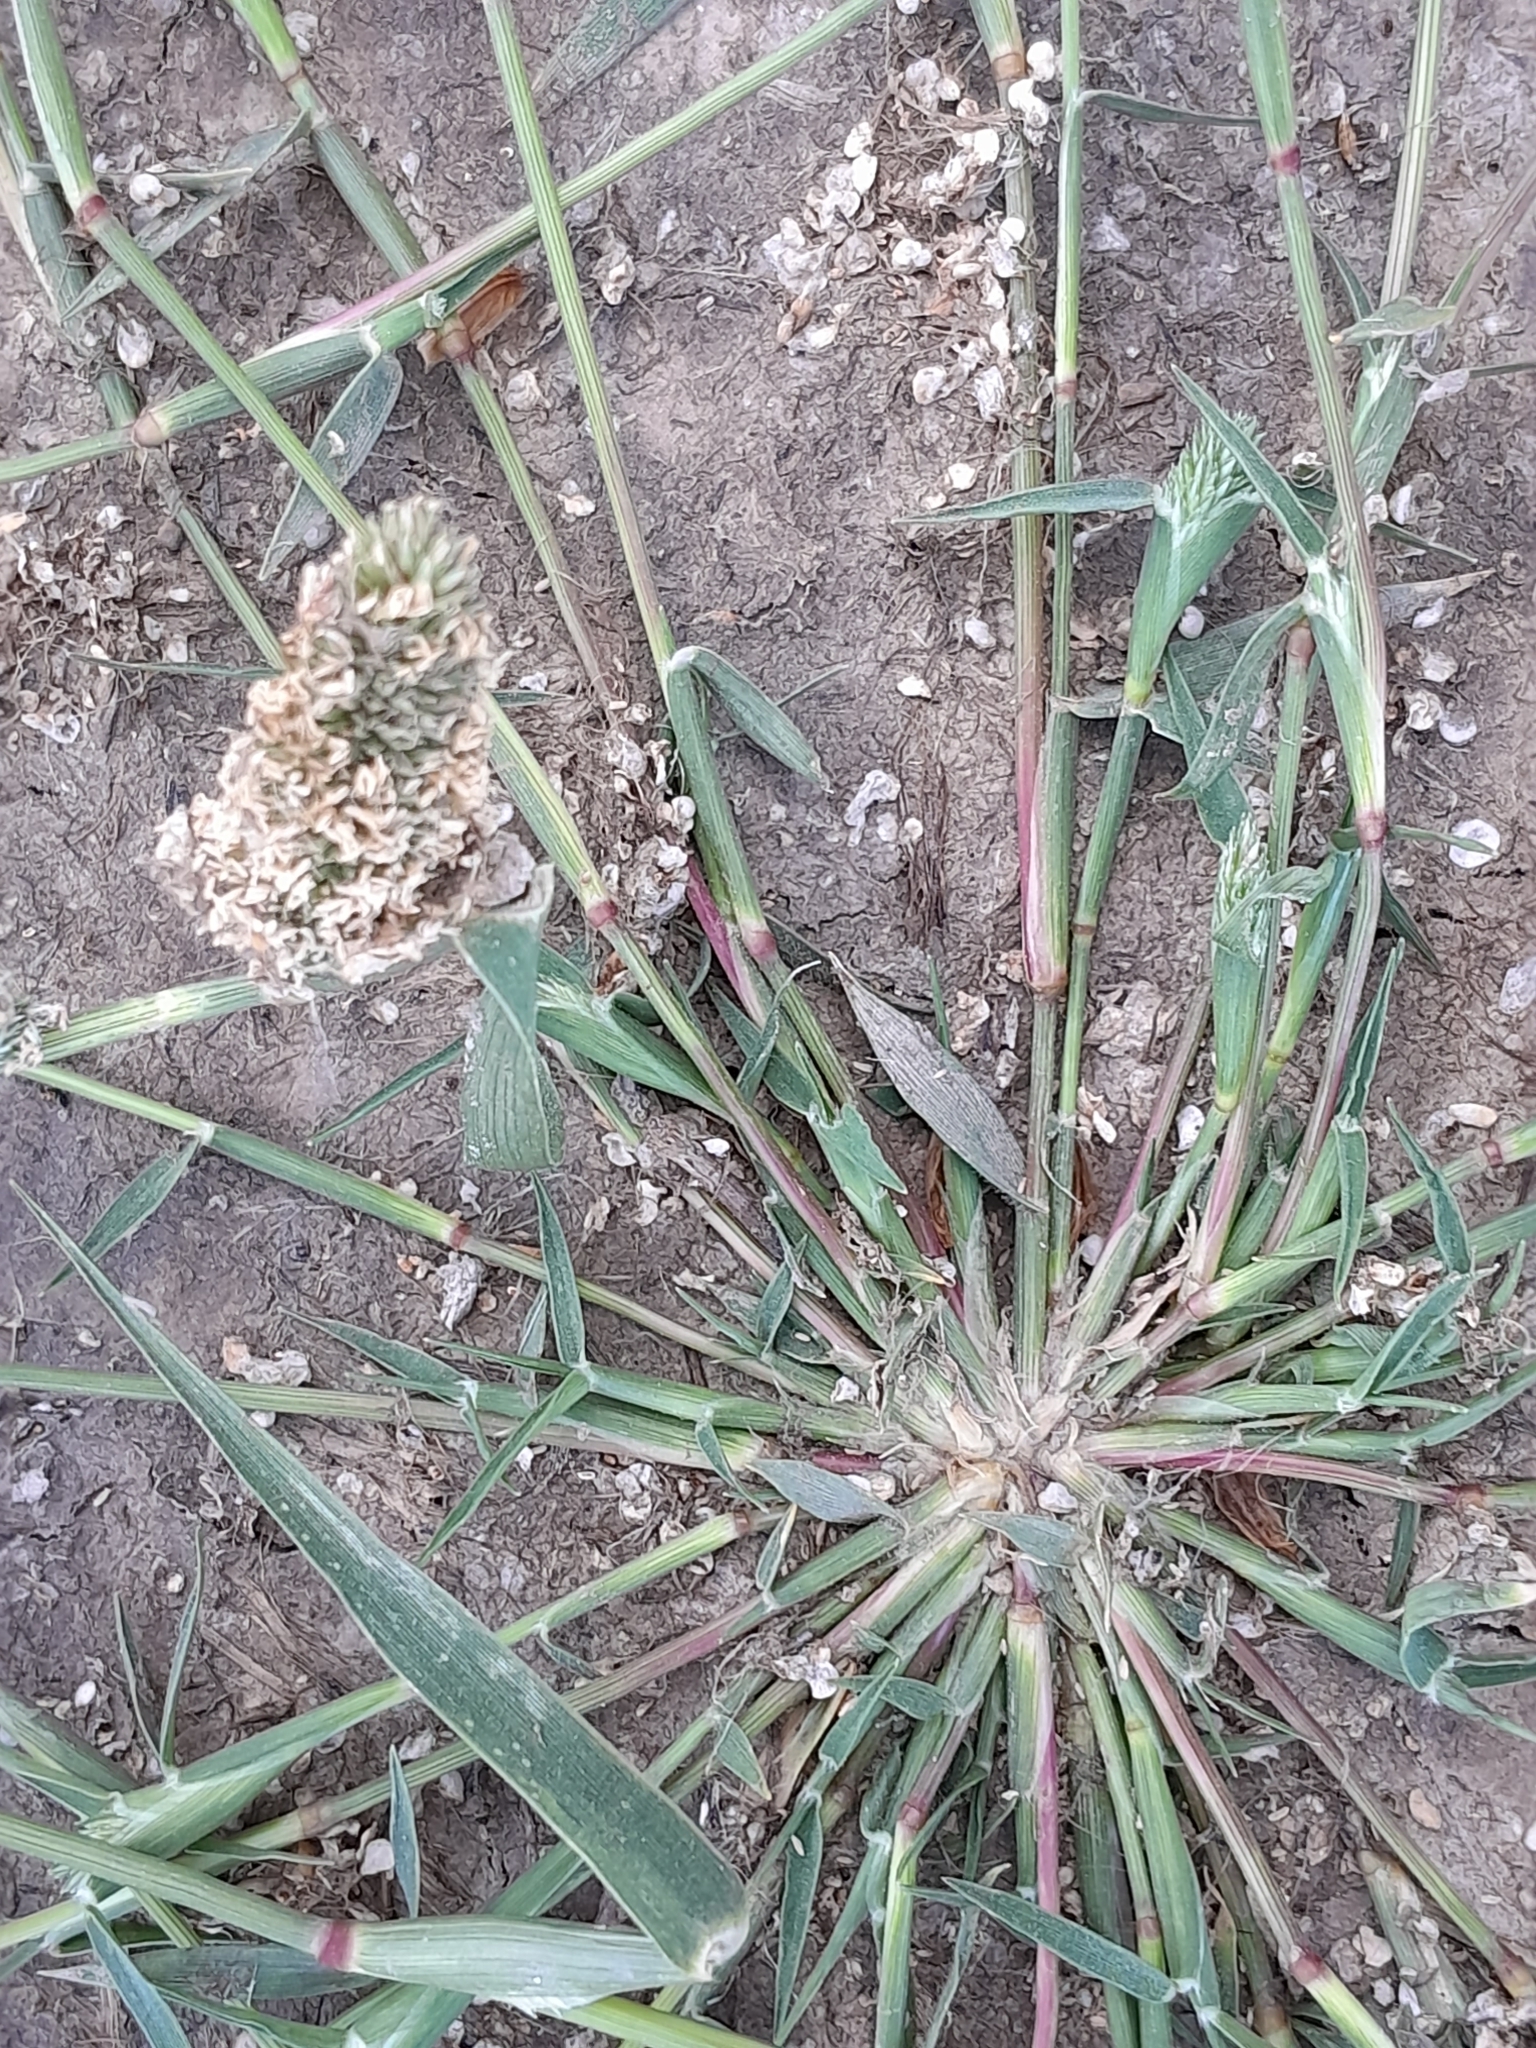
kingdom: Plantae
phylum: Tracheophyta
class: Liliopsida
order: Poales
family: Poaceae
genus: Sporobolus
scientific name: Sporobolus schoenoides
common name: Rush-like timothy
